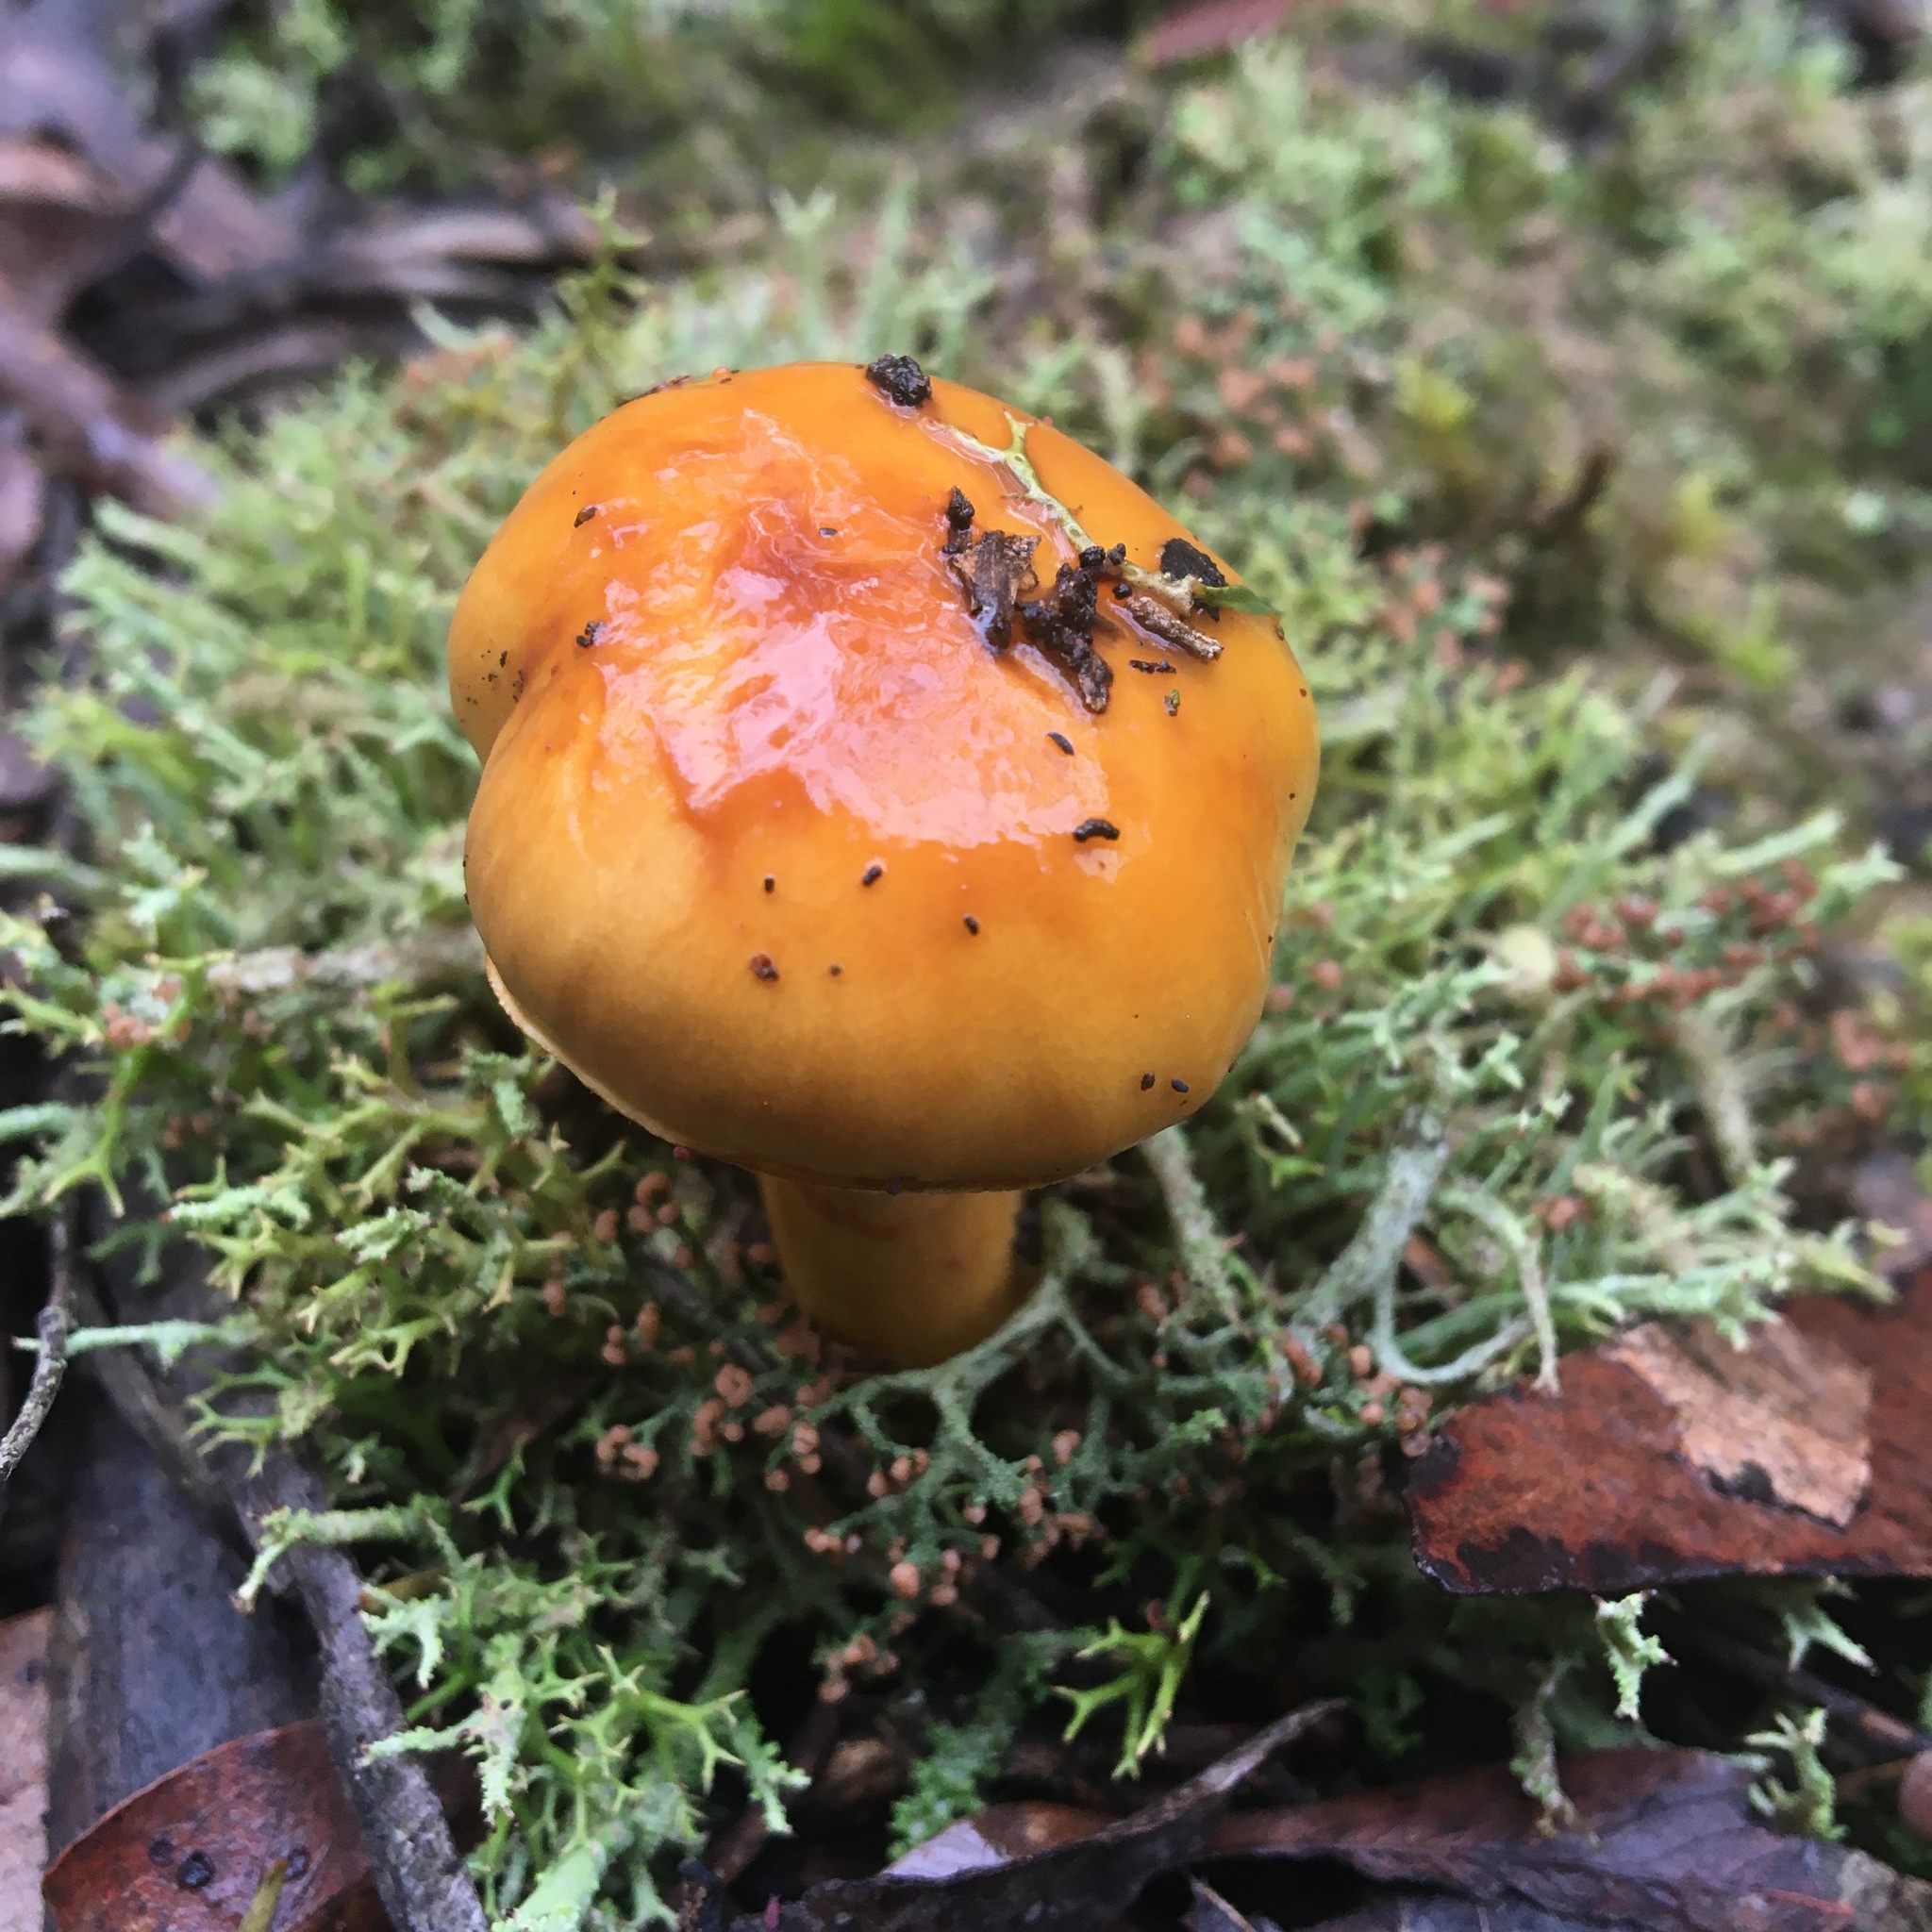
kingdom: Fungi
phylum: Basidiomycota
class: Agaricomycetes
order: Agaricales
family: Cortinariaceae
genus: Cortinarius
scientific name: Cortinarius sinapicolor
